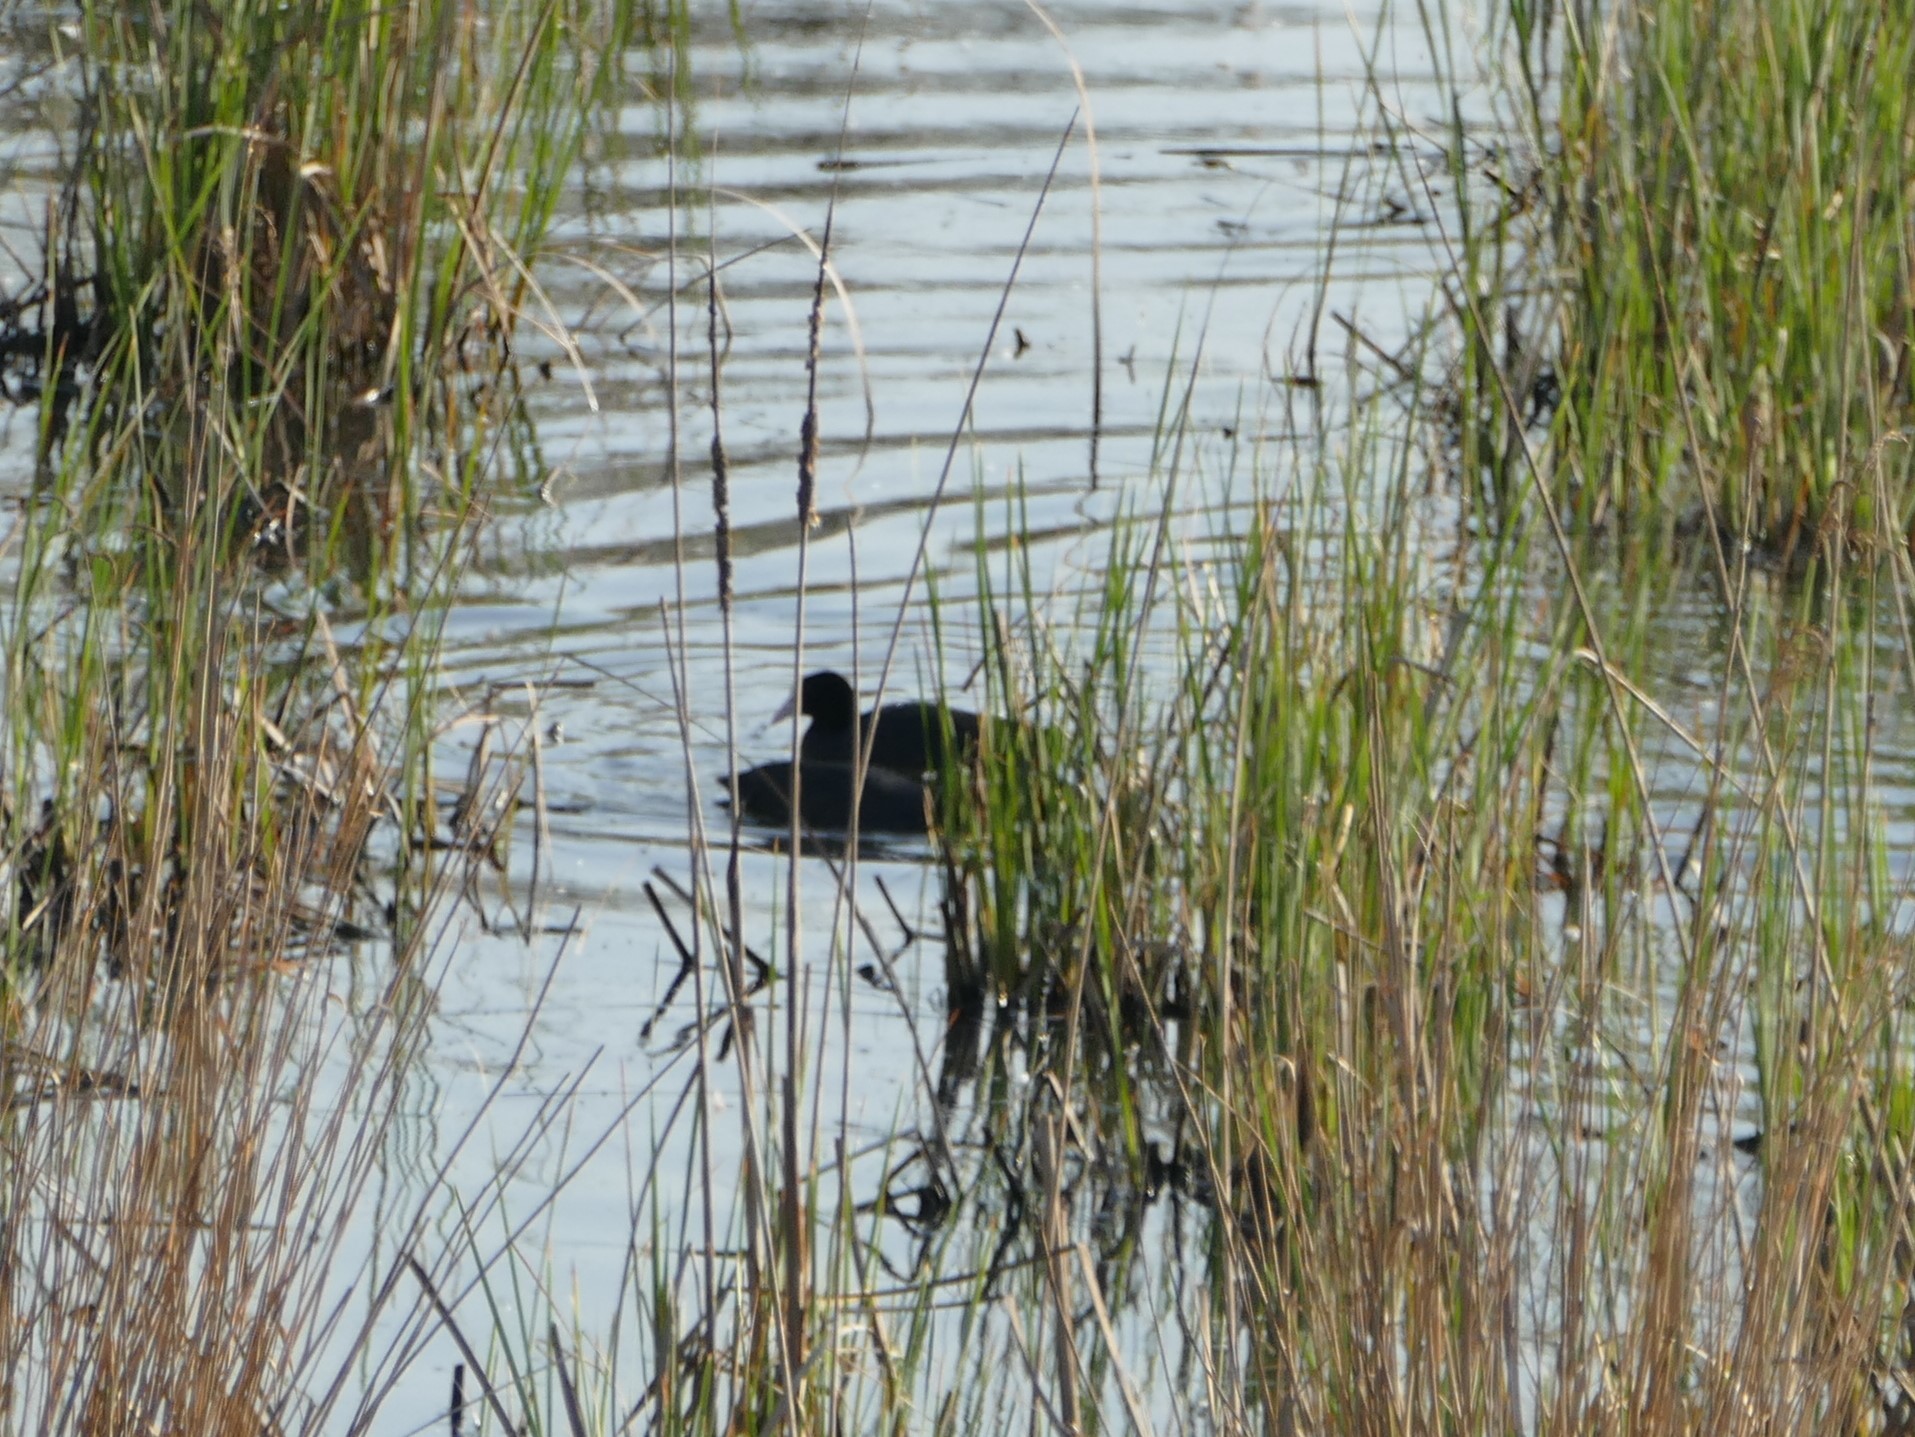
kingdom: Animalia
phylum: Chordata
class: Aves
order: Gruiformes
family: Rallidae
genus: Fulica
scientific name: Fulica atra
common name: Eurasian coot
